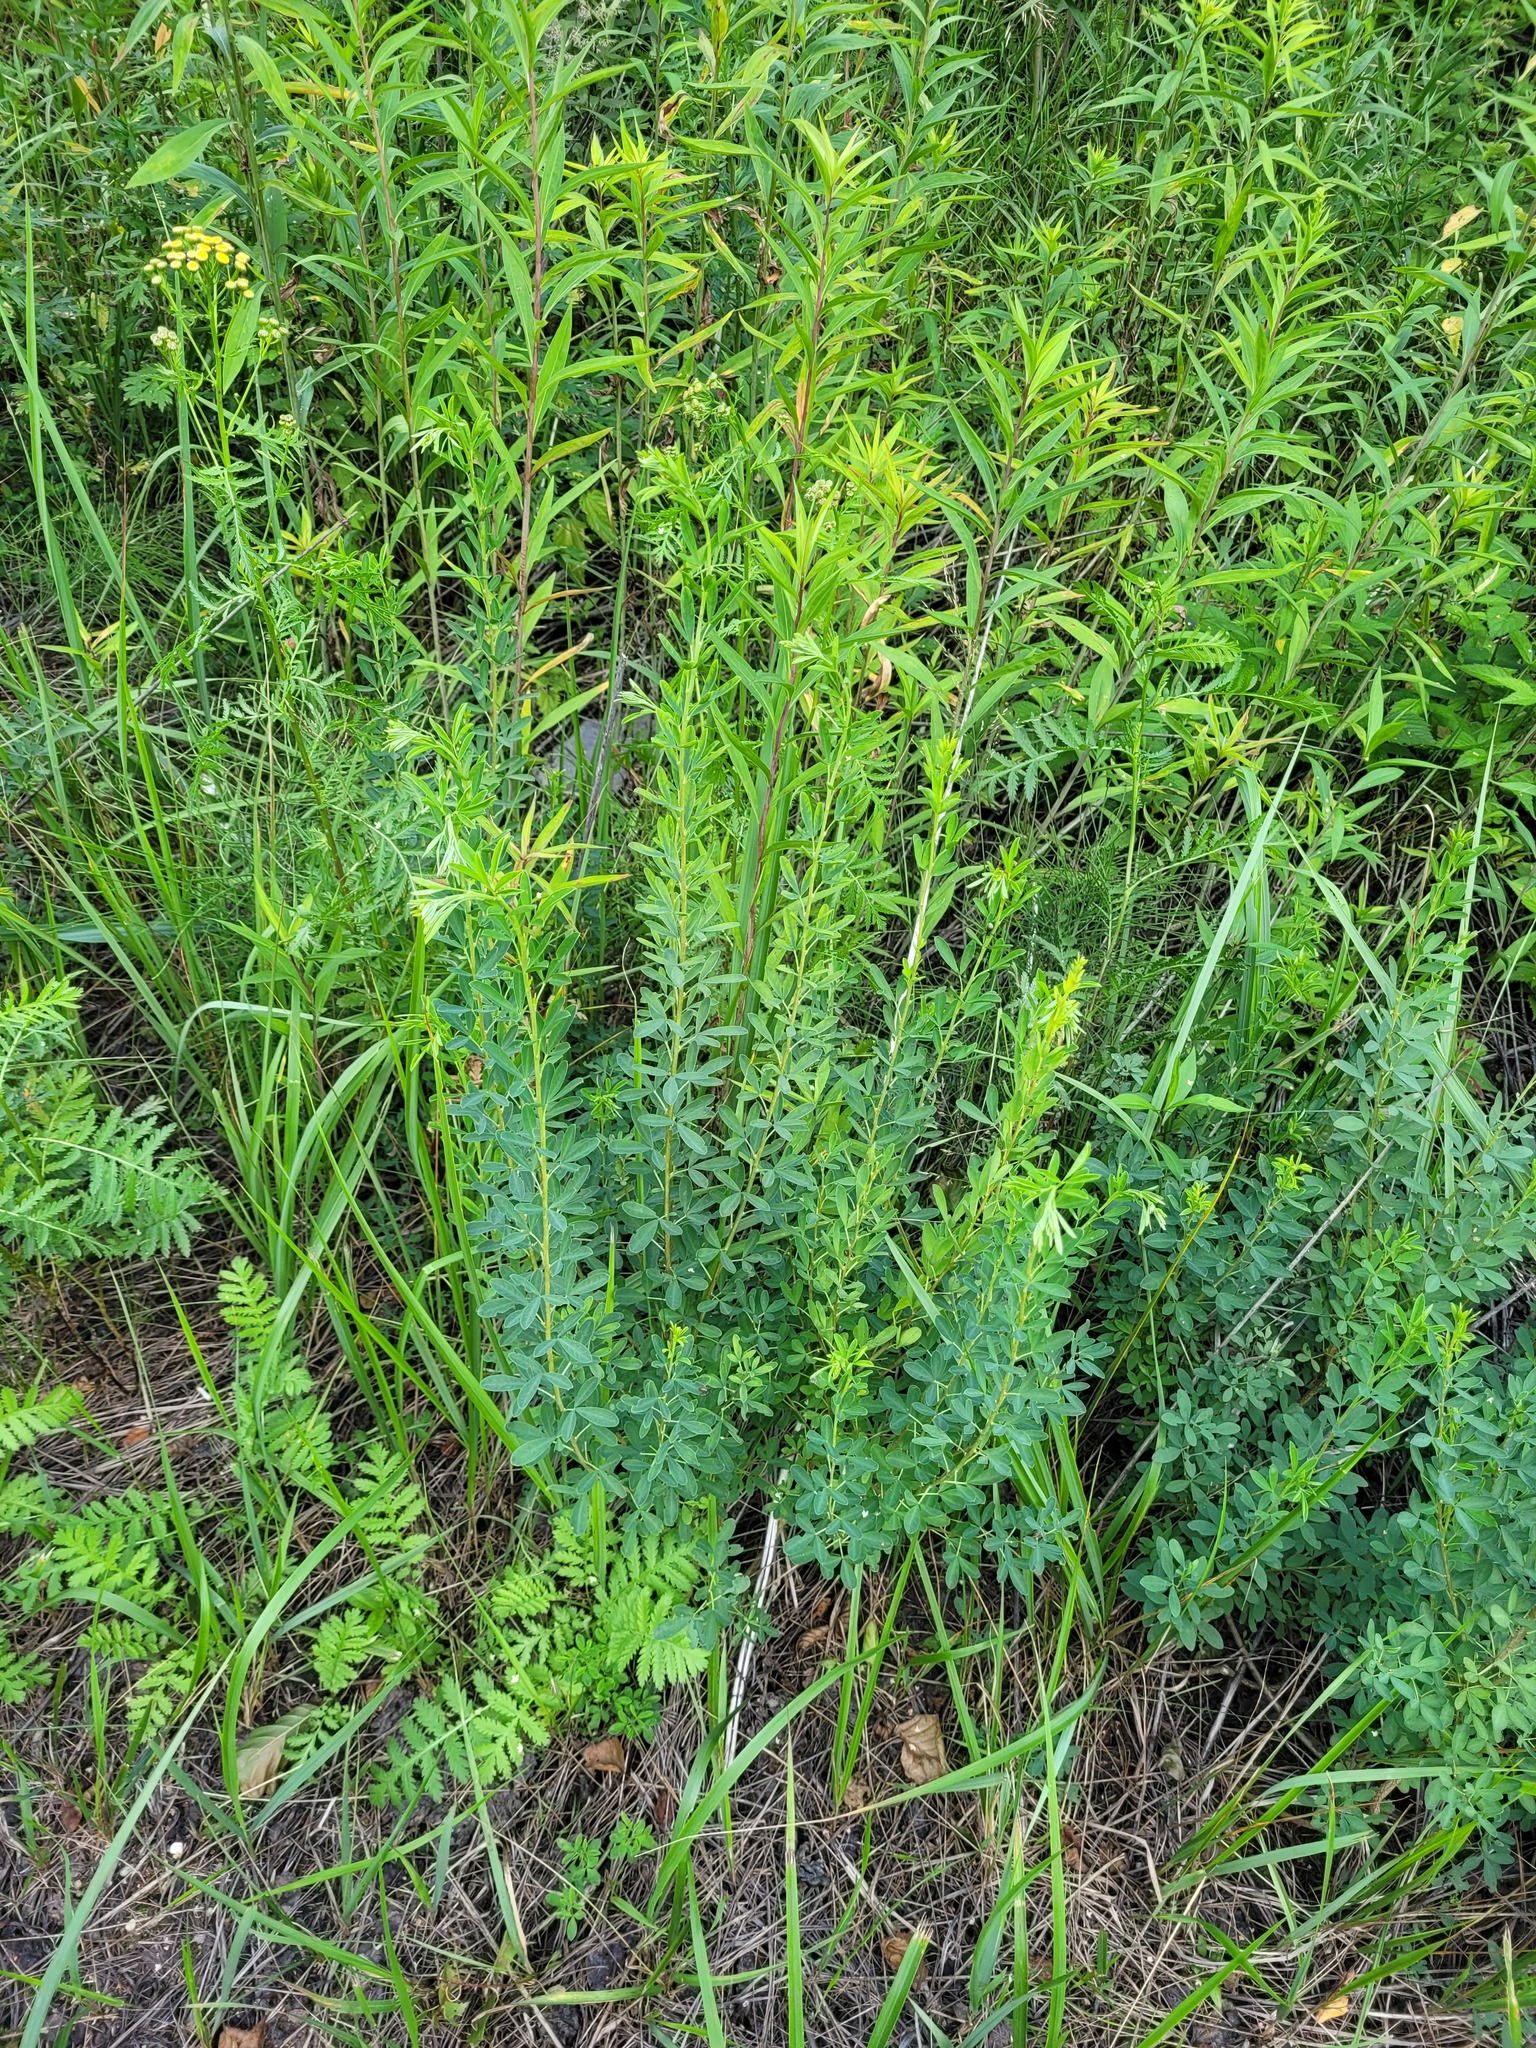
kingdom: Plantae
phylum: Tracheophyta
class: Magnoliopsida
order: Fabales
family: Fabaceae
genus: Chamaecytisus
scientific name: Chamaecytisus ruthenicus
